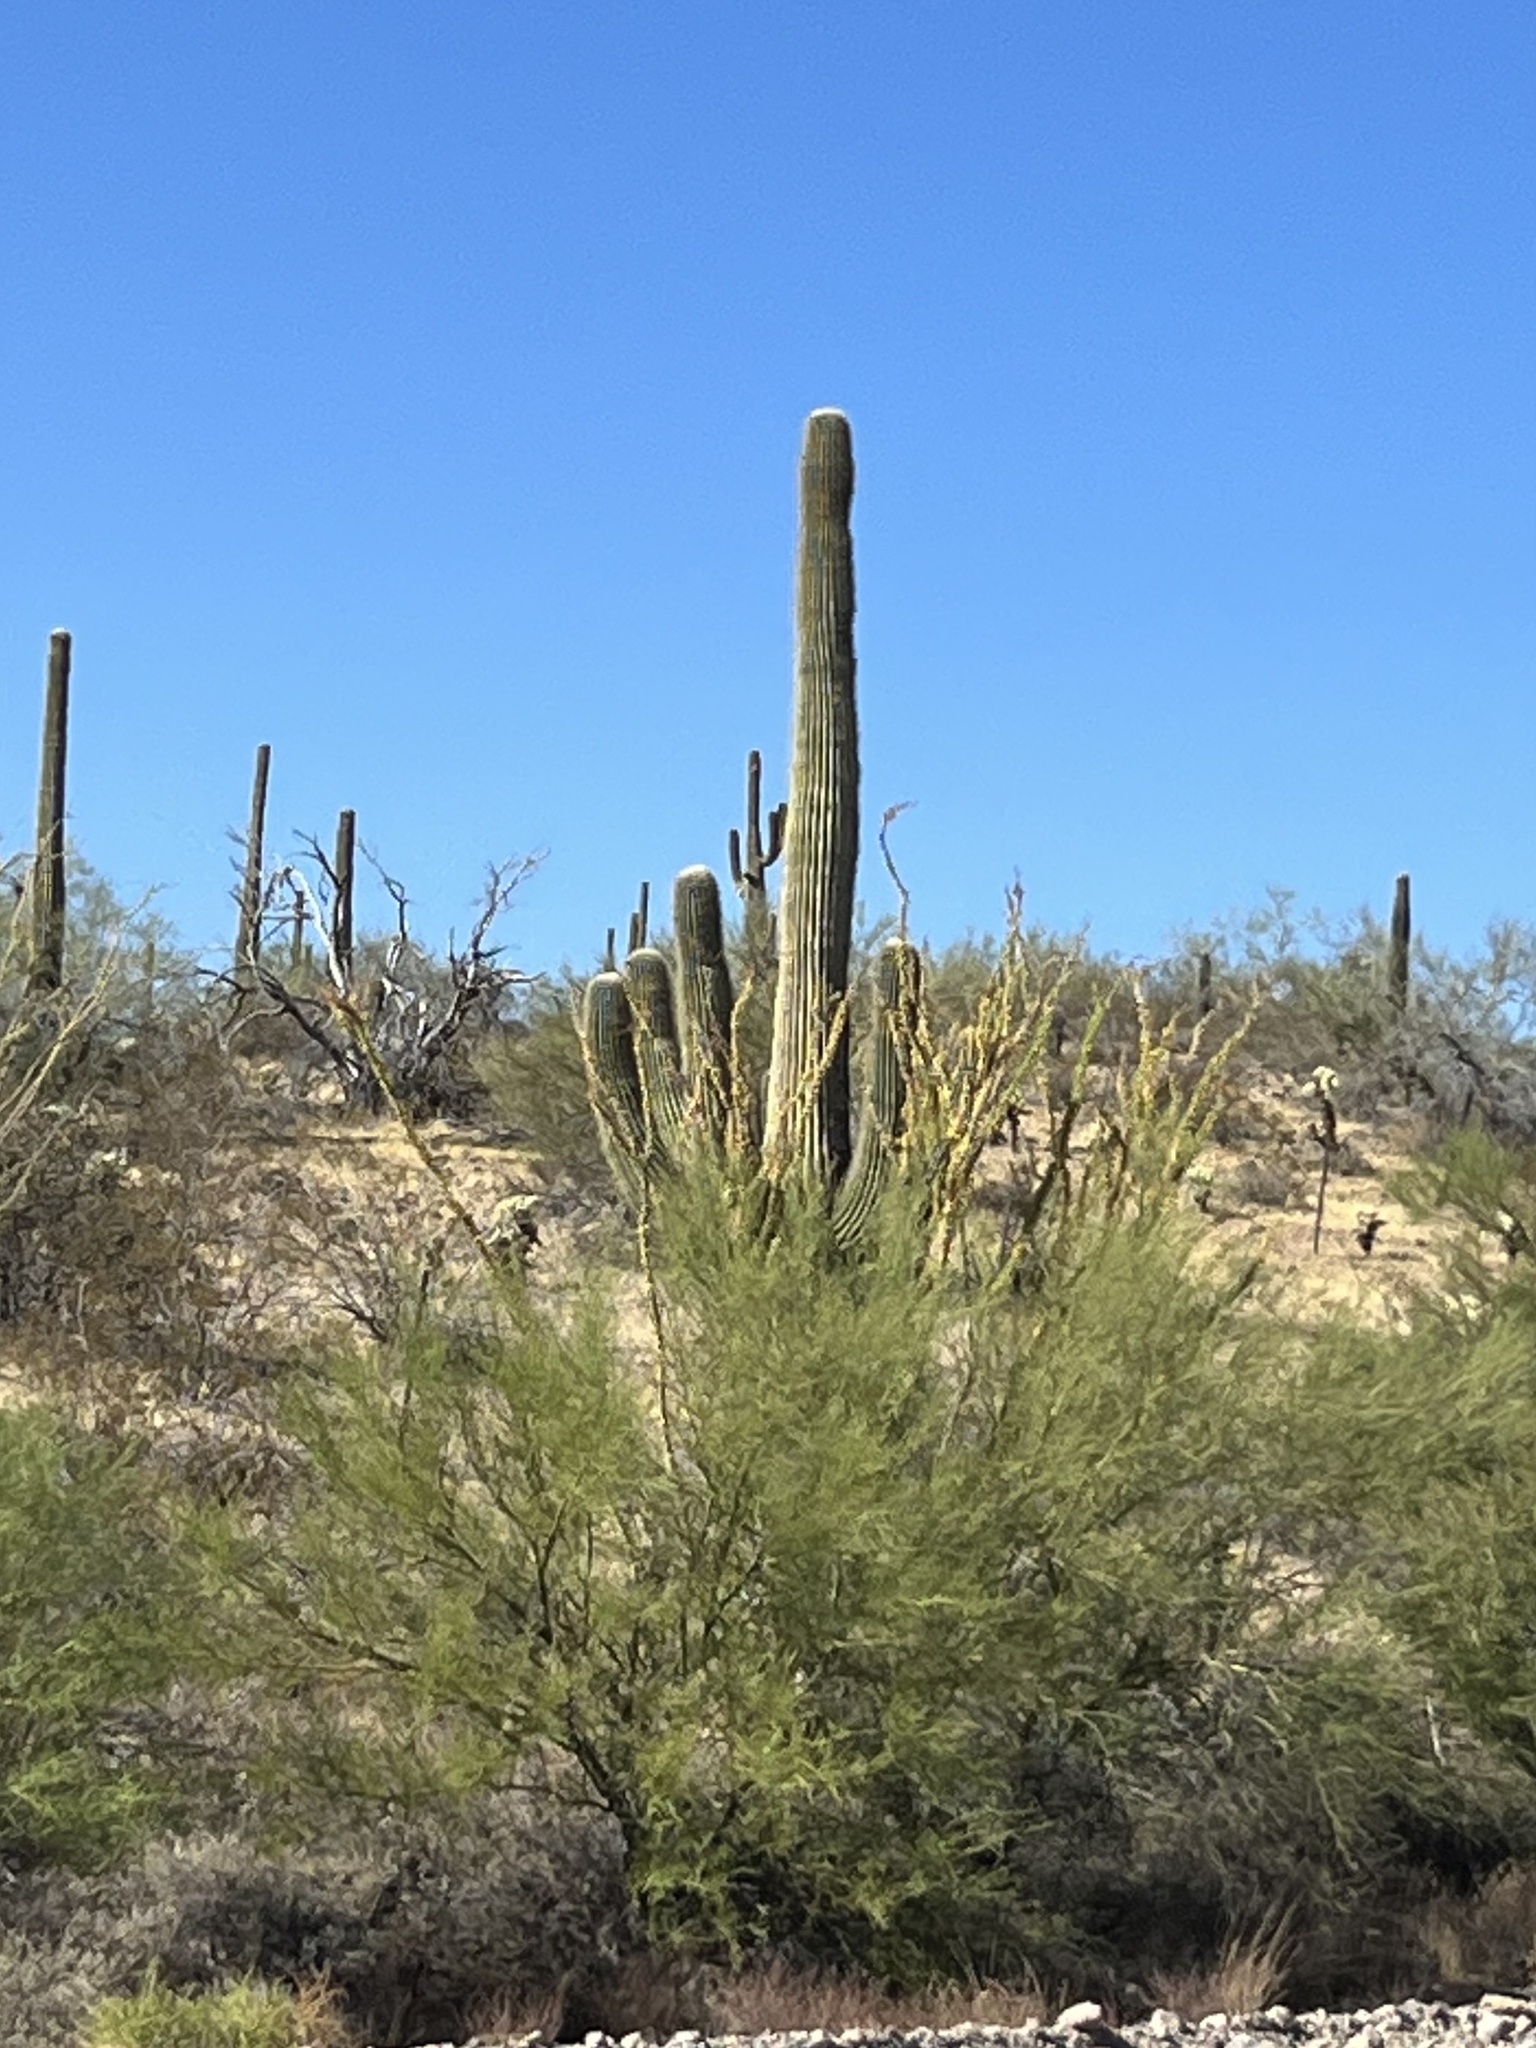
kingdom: Plantae
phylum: Tracheophyta
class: Magnoliopsida
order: Caryophyllales
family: Cactaceae
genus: Carnegiea
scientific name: Carnegiea gigantea
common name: Saguaro
